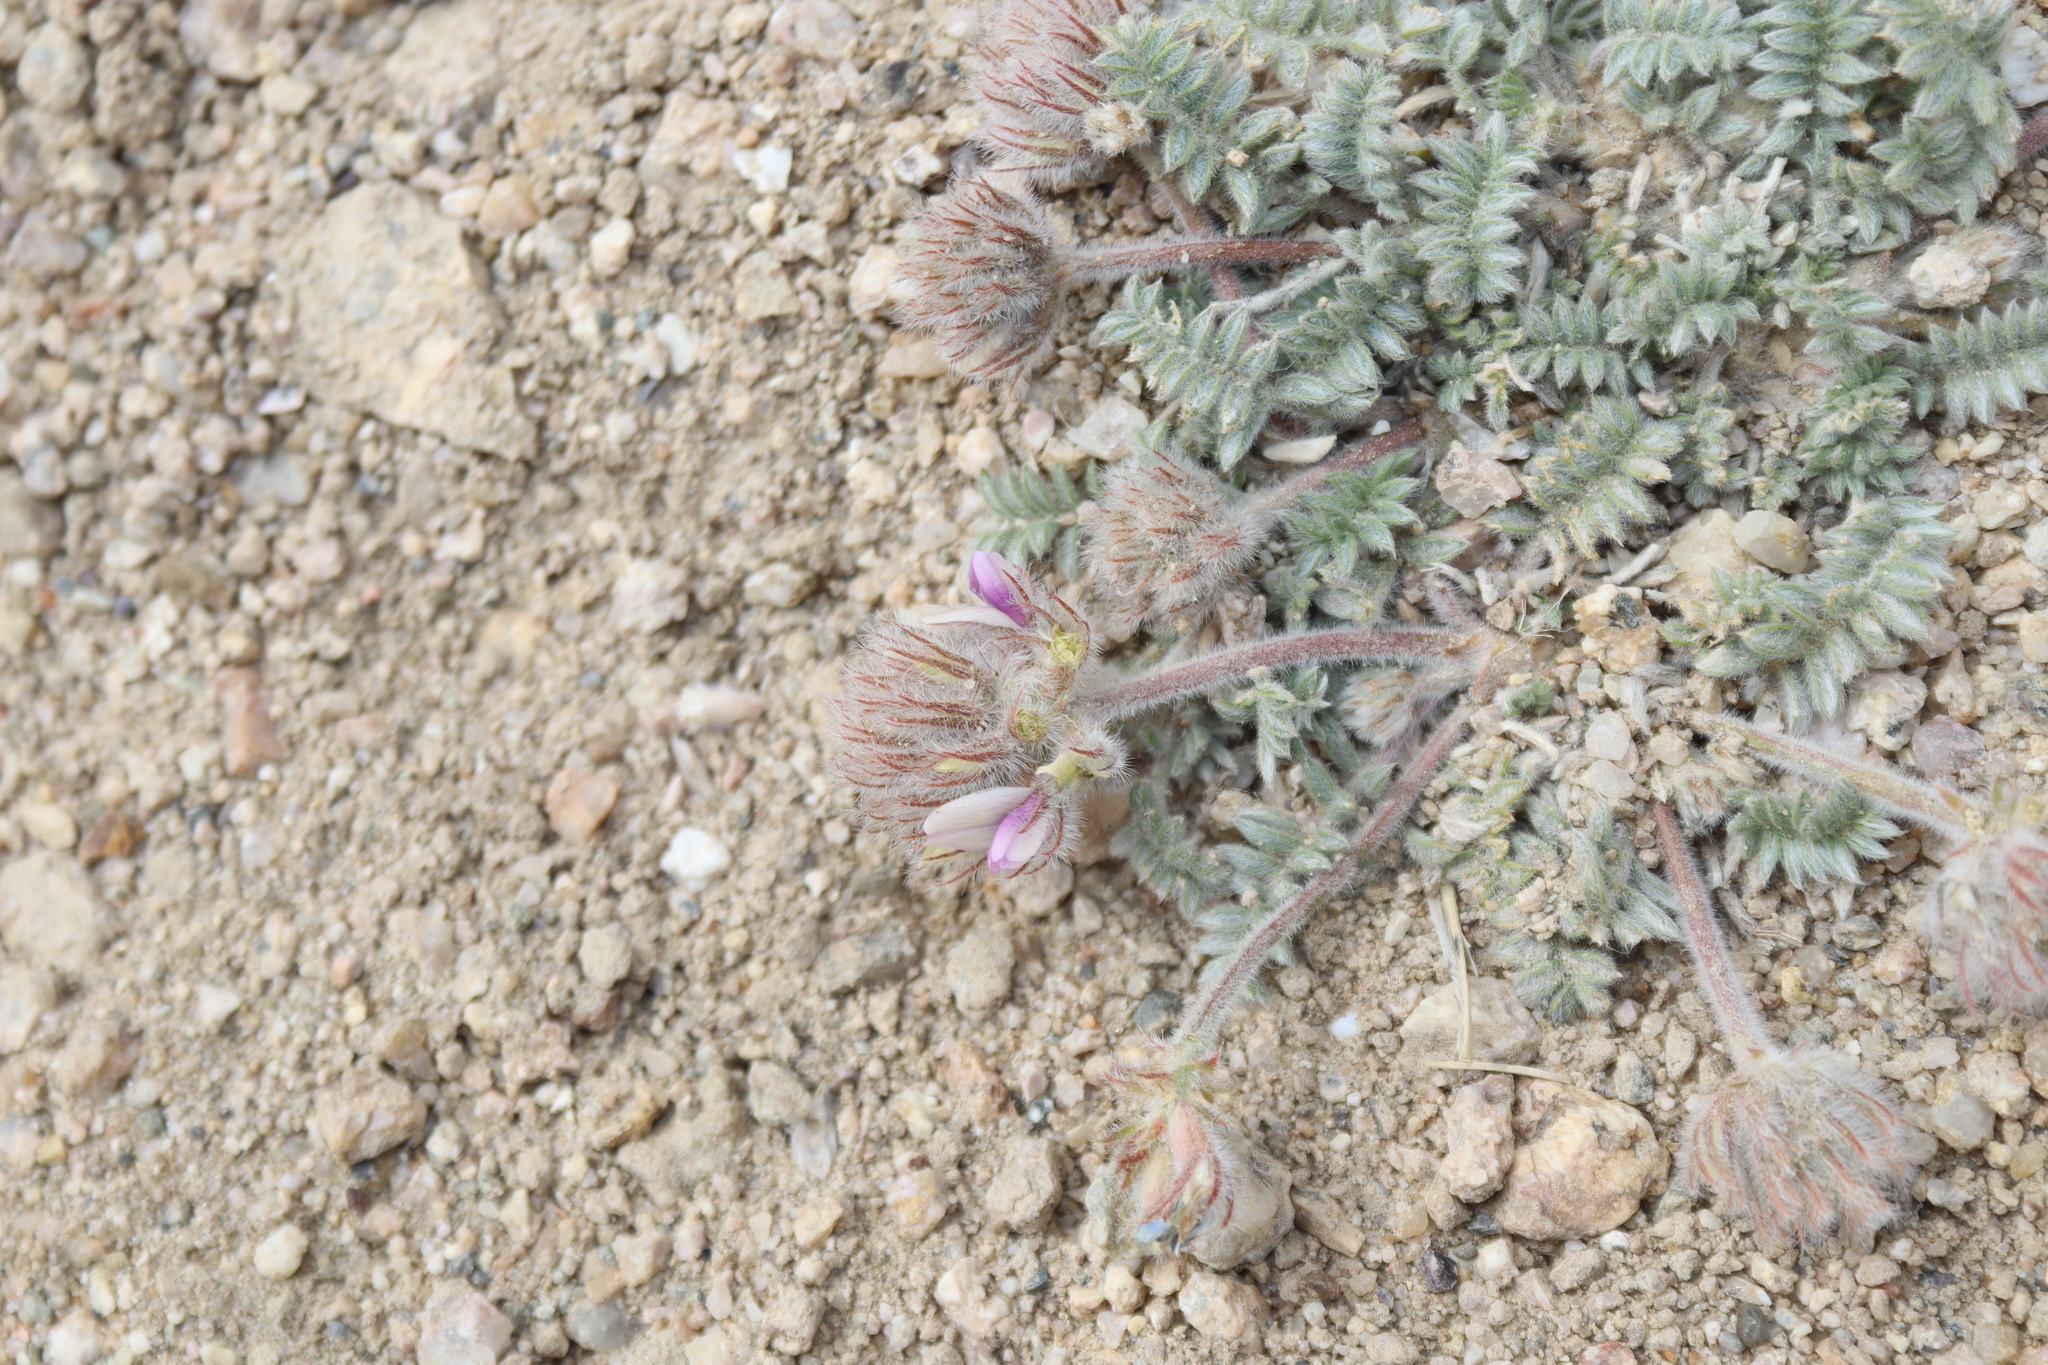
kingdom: Plantae
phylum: Tracheophyta
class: Magnoliopsida
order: Fabales
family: Fabaceae
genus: Oxytropis
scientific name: Oxytropis tatarica
